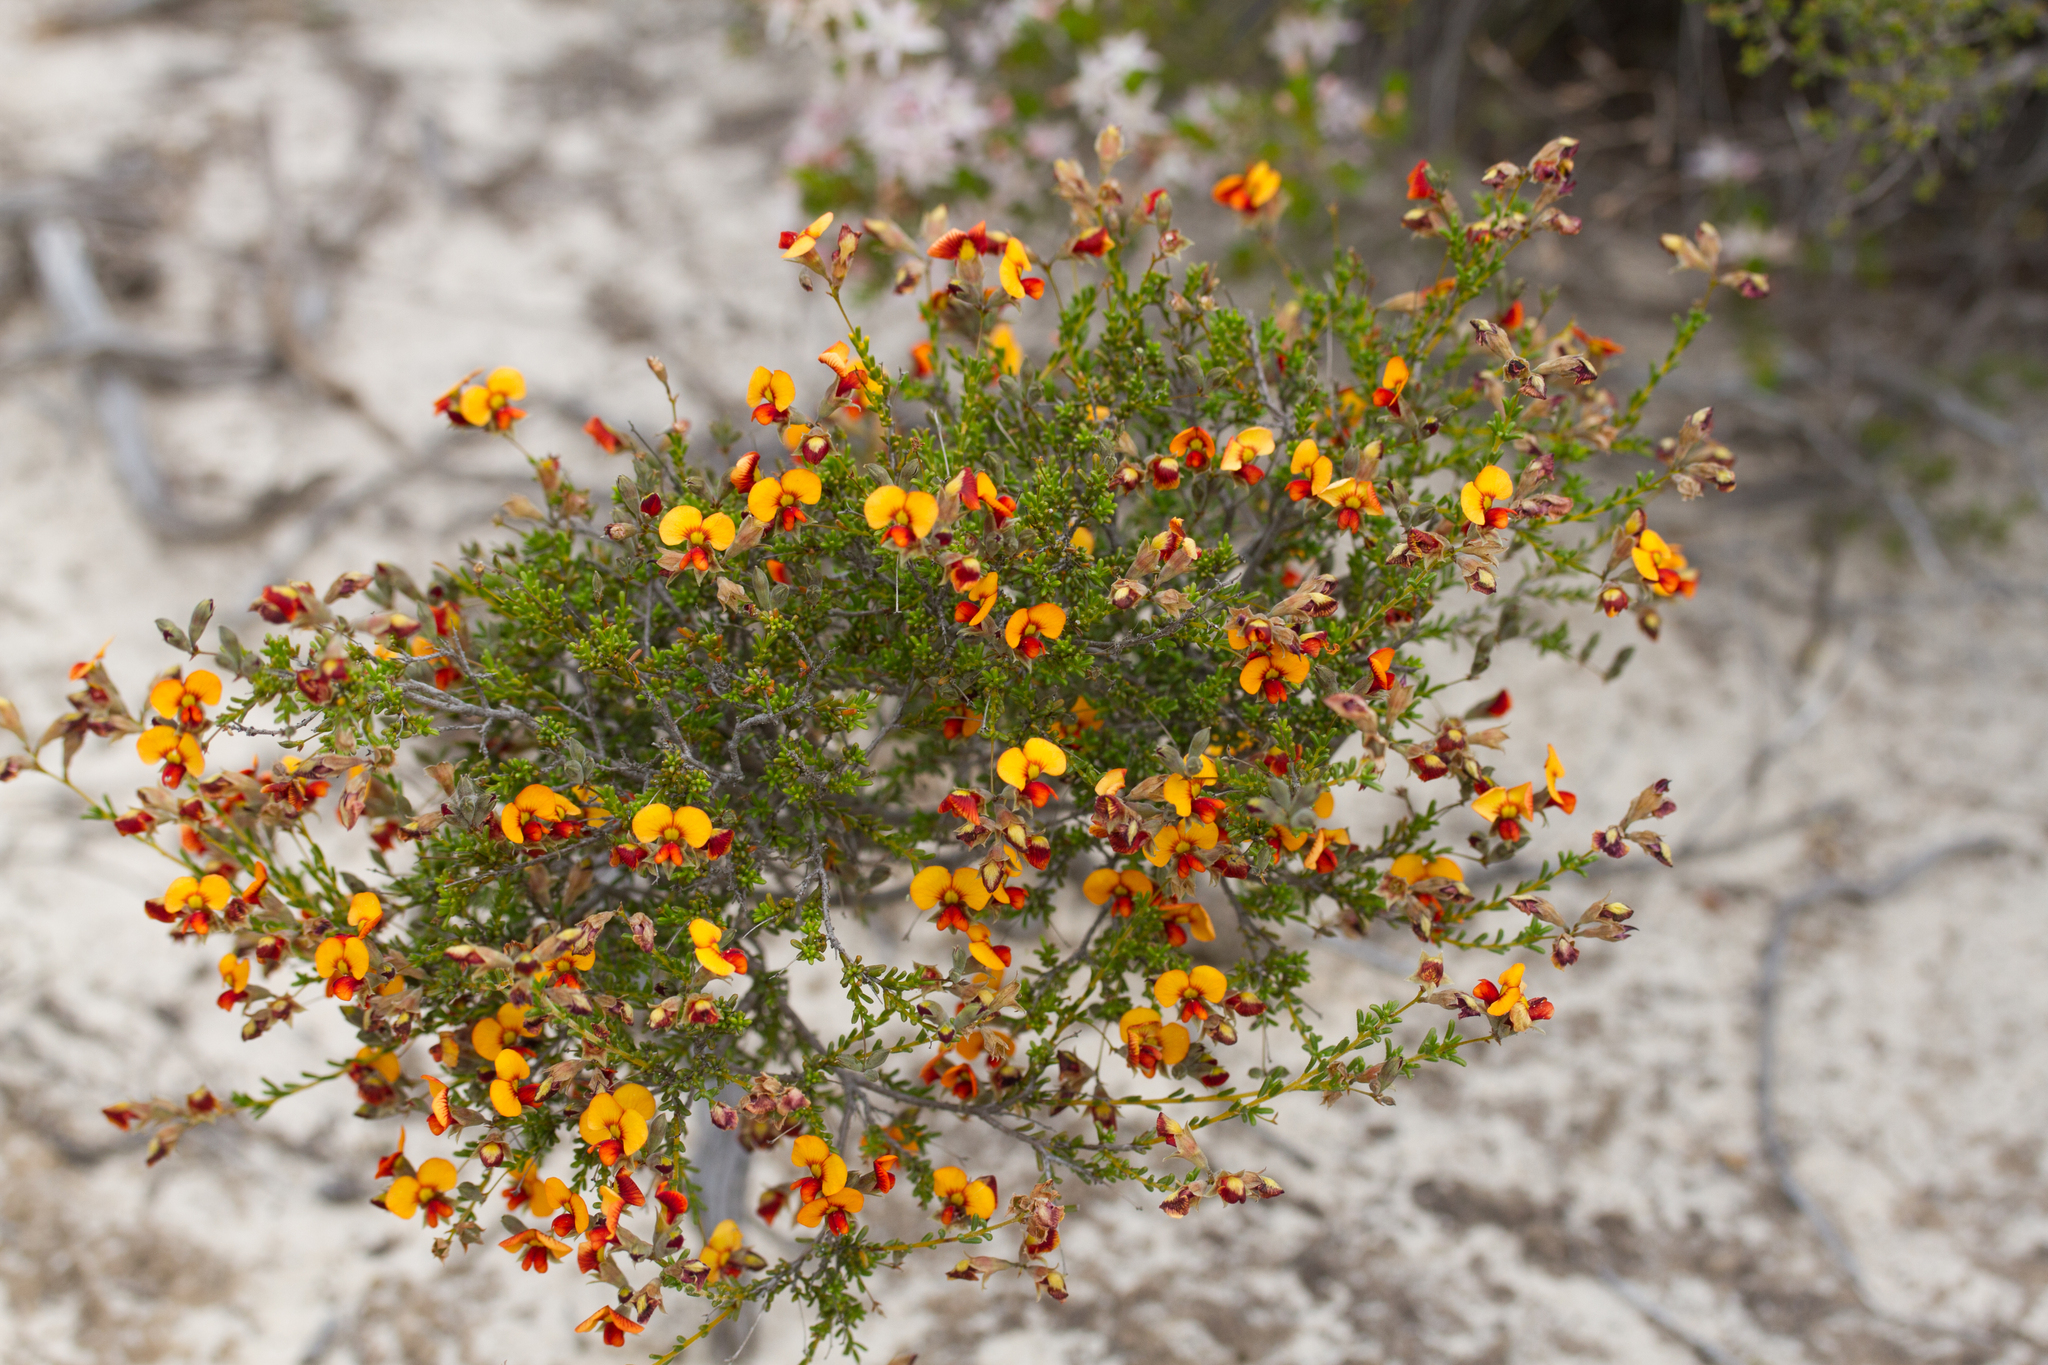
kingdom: Plantae
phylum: Tracheophyta
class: Magnoliopsida
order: Fabales
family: Fabaceae
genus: Dillwynia
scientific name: Dillwynia hispida
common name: Red parrot-pea
